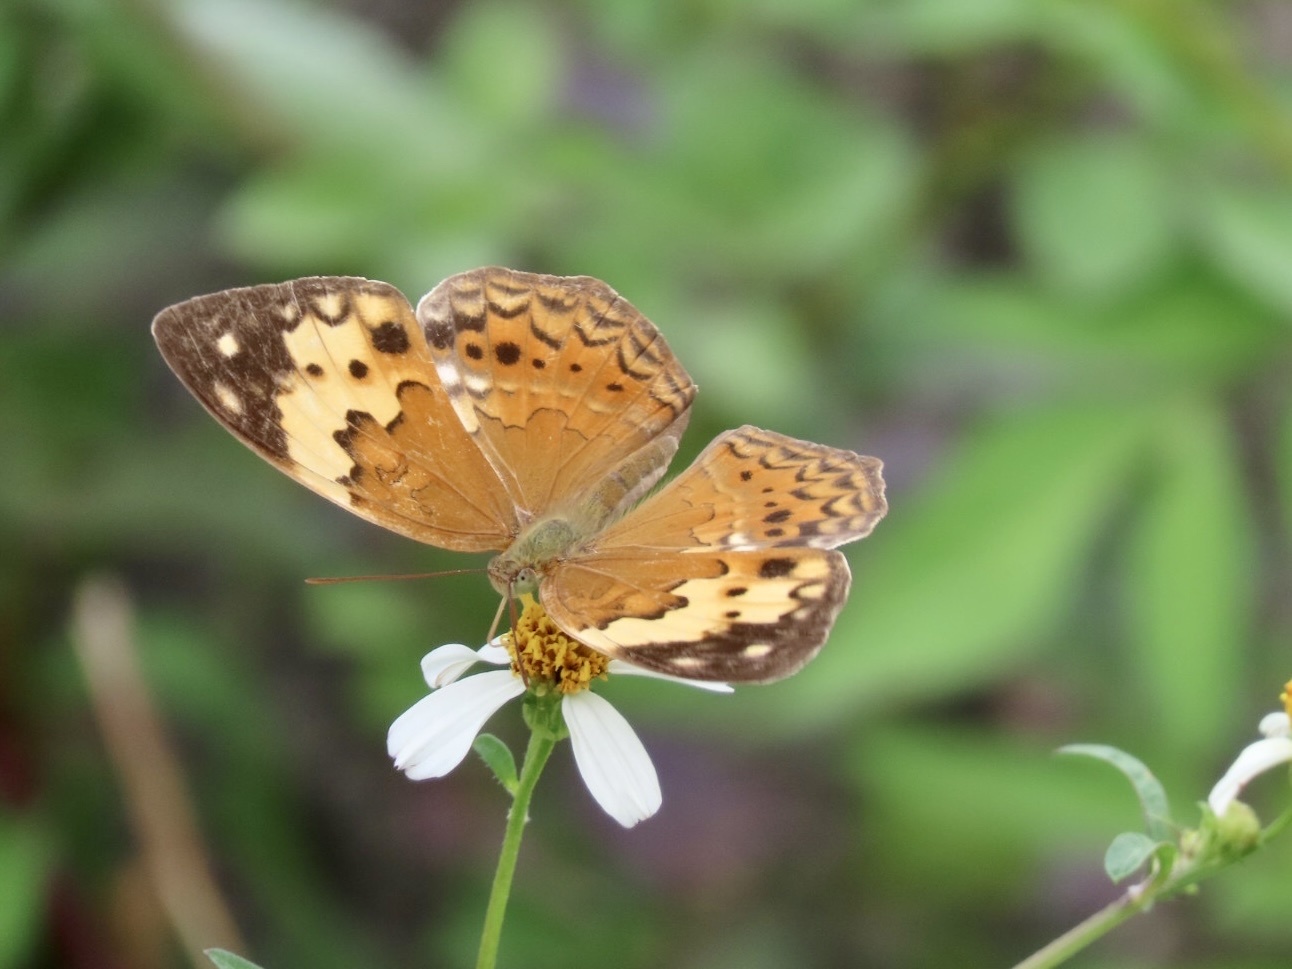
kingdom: Animalia
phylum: Arthropoda
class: Insecta
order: Lepidoptera
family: Nymphalidae
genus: Cupha
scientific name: Cupha erymanthis
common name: Rustic
